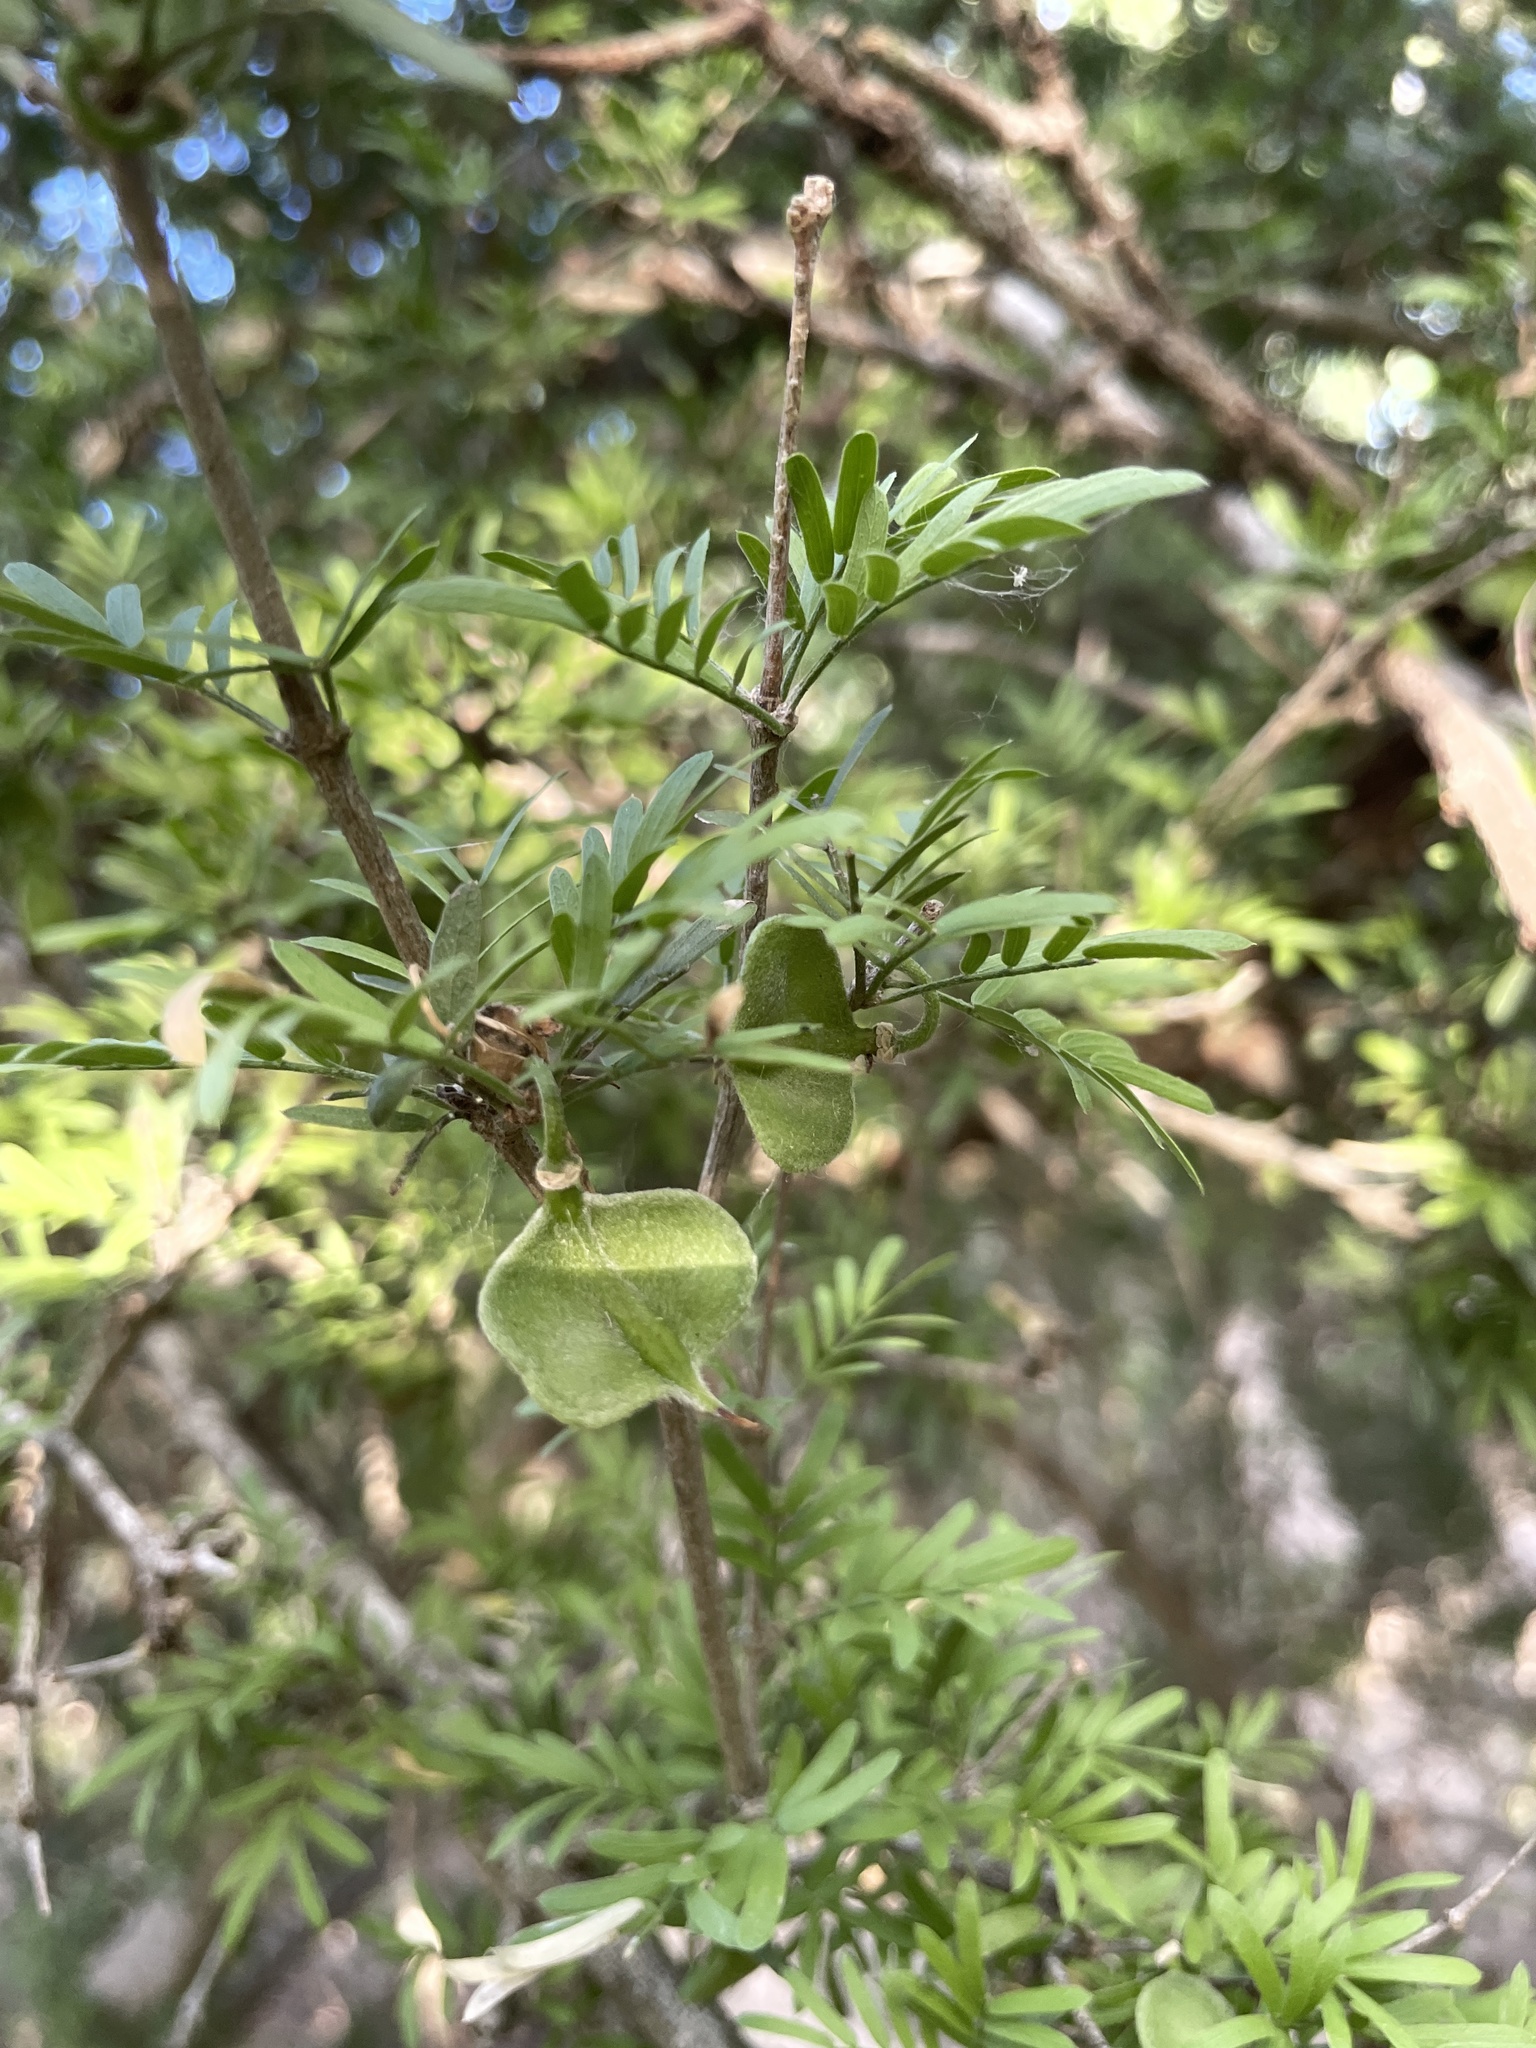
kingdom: Plantae
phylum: Tracheophyta
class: Magnoliopsida
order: Zygophyllales
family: Zygophyllaceae
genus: Porlieria
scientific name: Porlieria angustifolia
